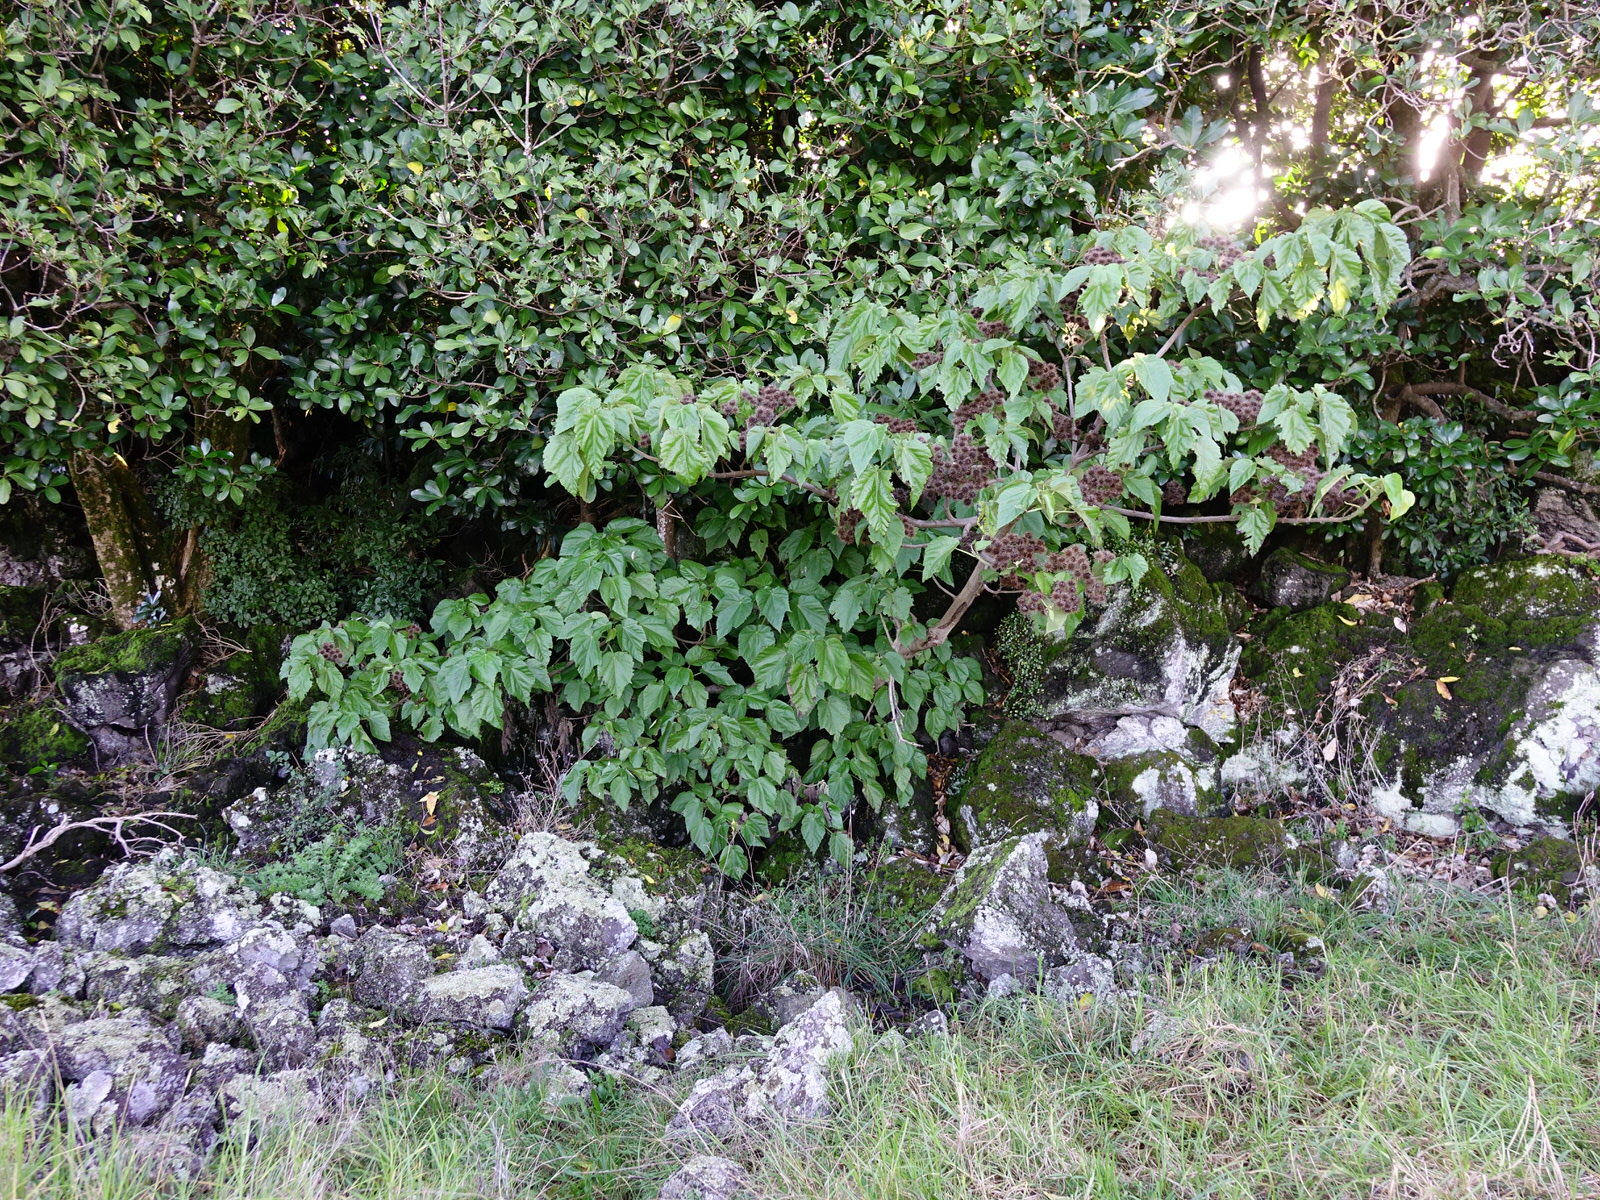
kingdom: Plantae
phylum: Tracheophyta
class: Magnoliopsida
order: Malvales
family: Malvaceae
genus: Entelea
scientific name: Entelea arborescens
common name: New zealand-mulberry
